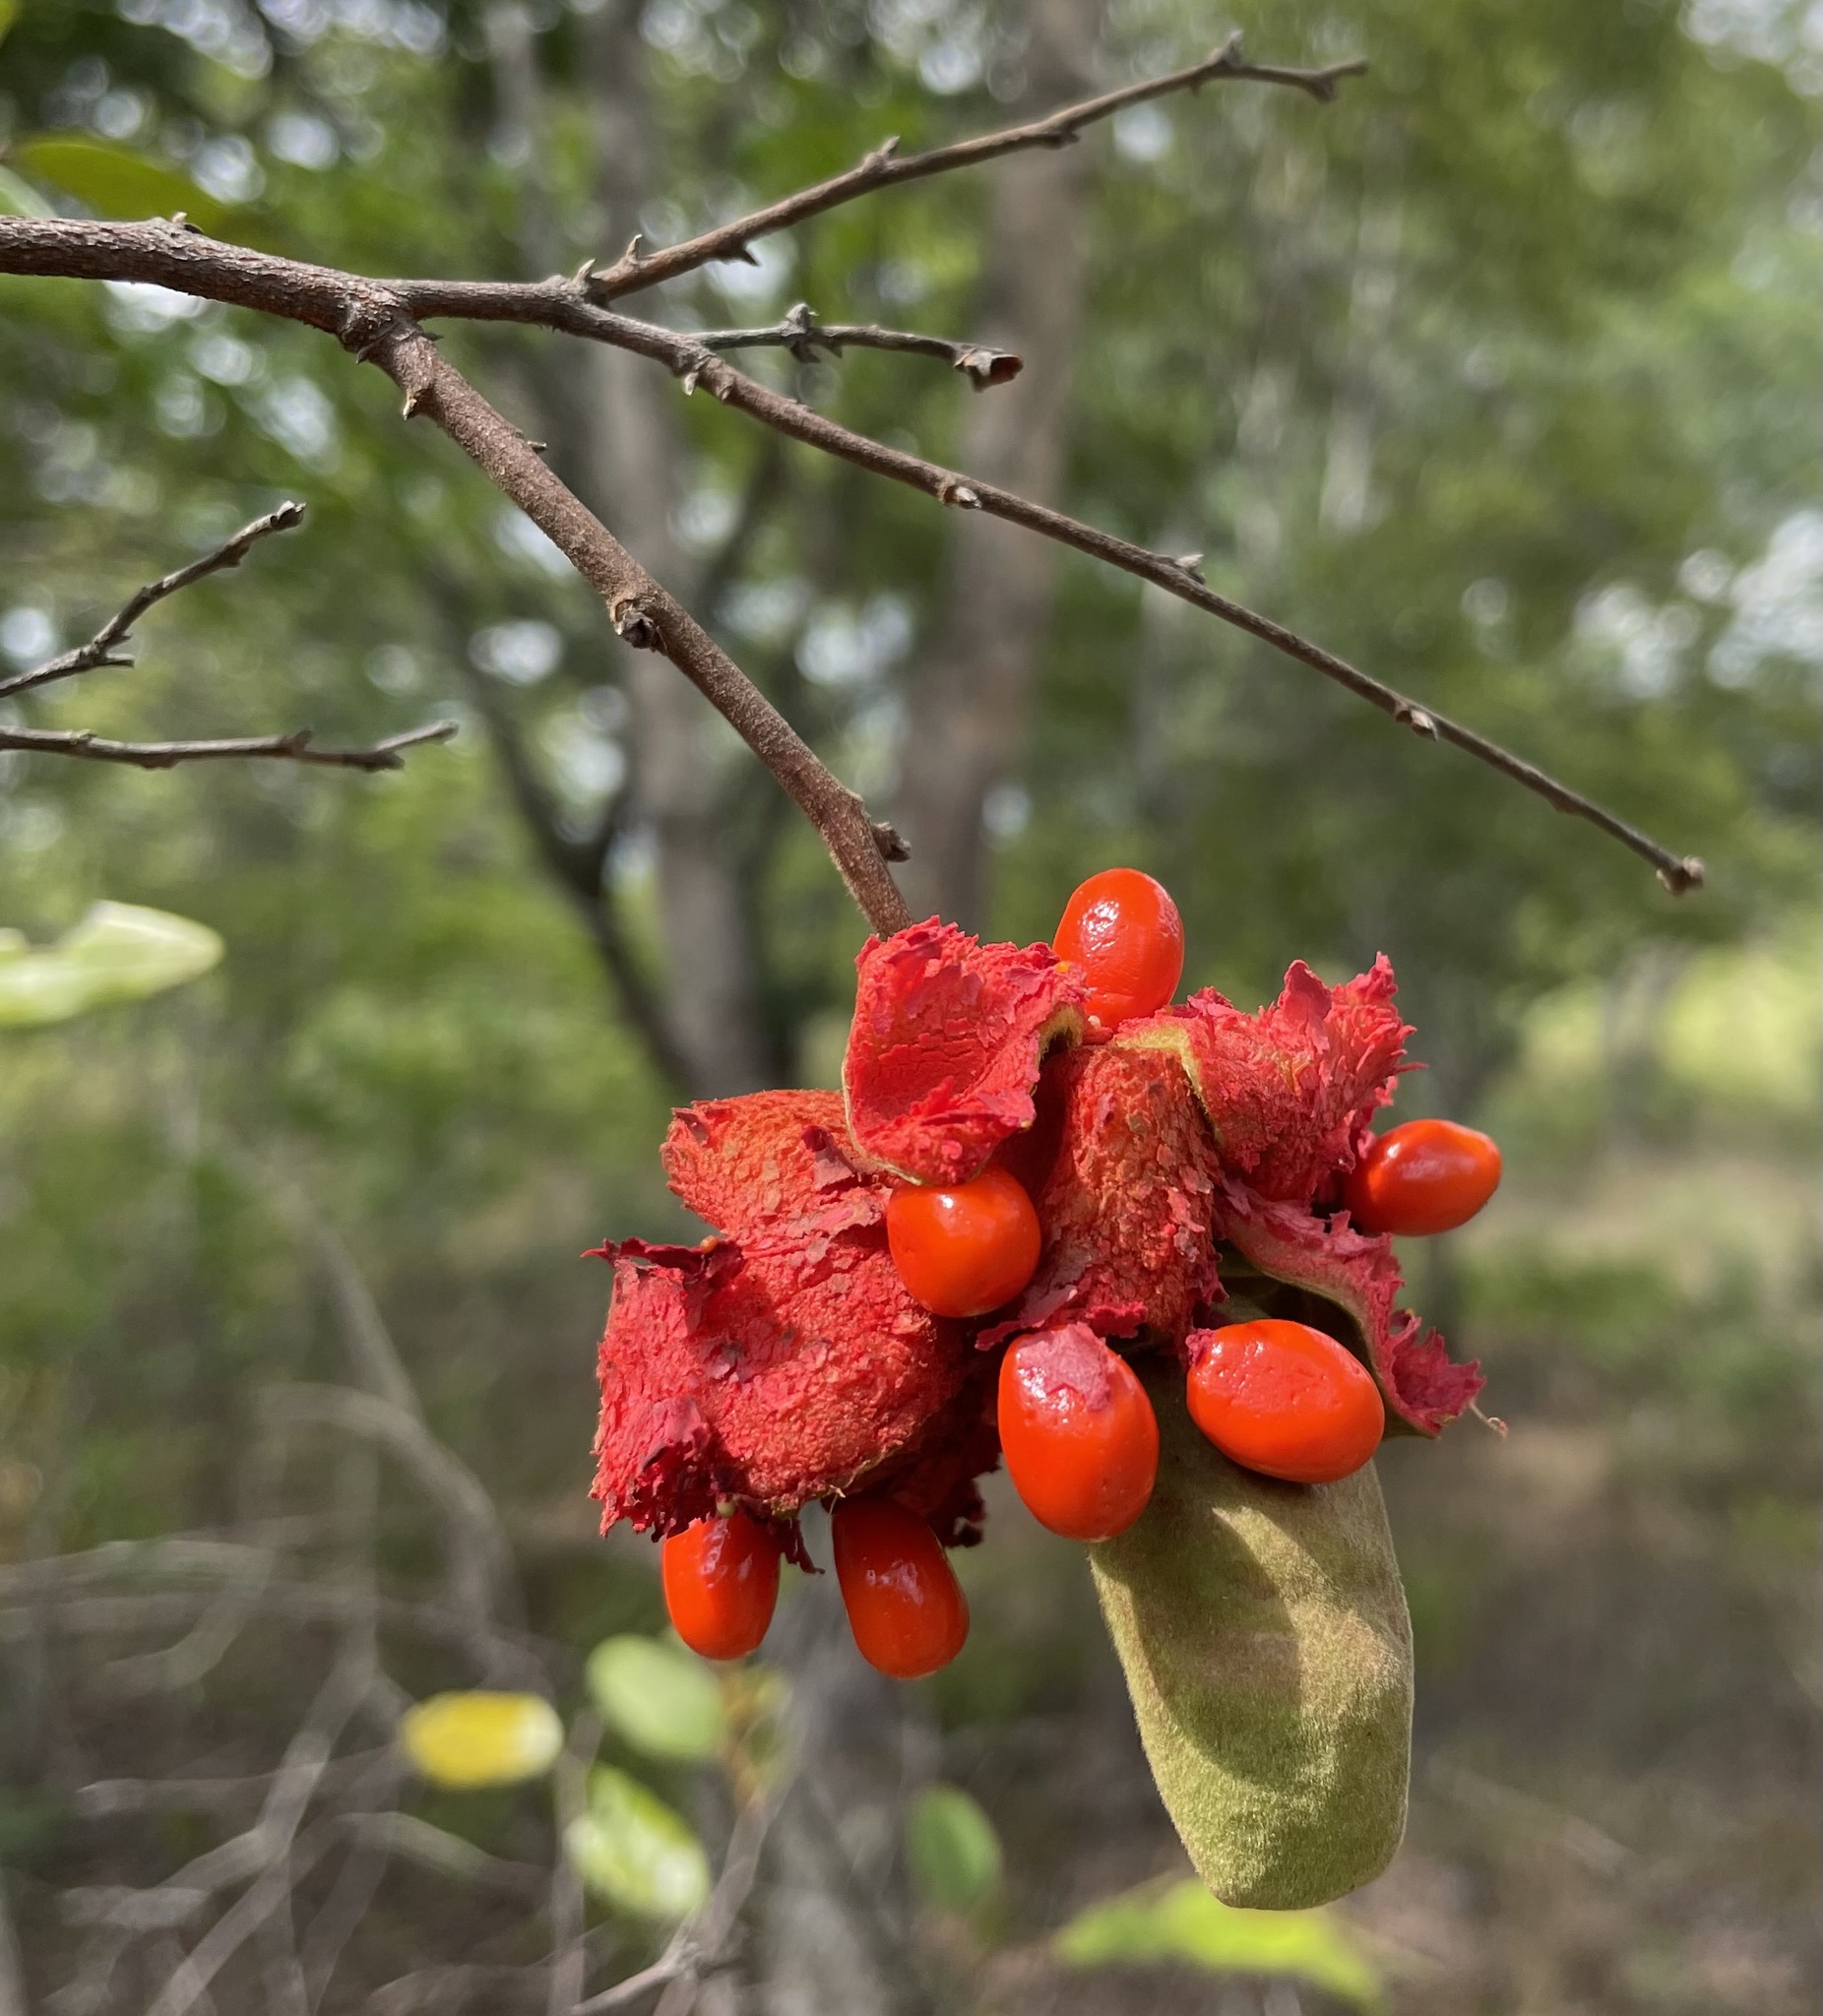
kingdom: Plantae
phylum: Tracheophyta
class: Magnoliopsida
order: Magnoliales
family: Annonaceae
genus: Xylopia
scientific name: Xylopia tomentosa
